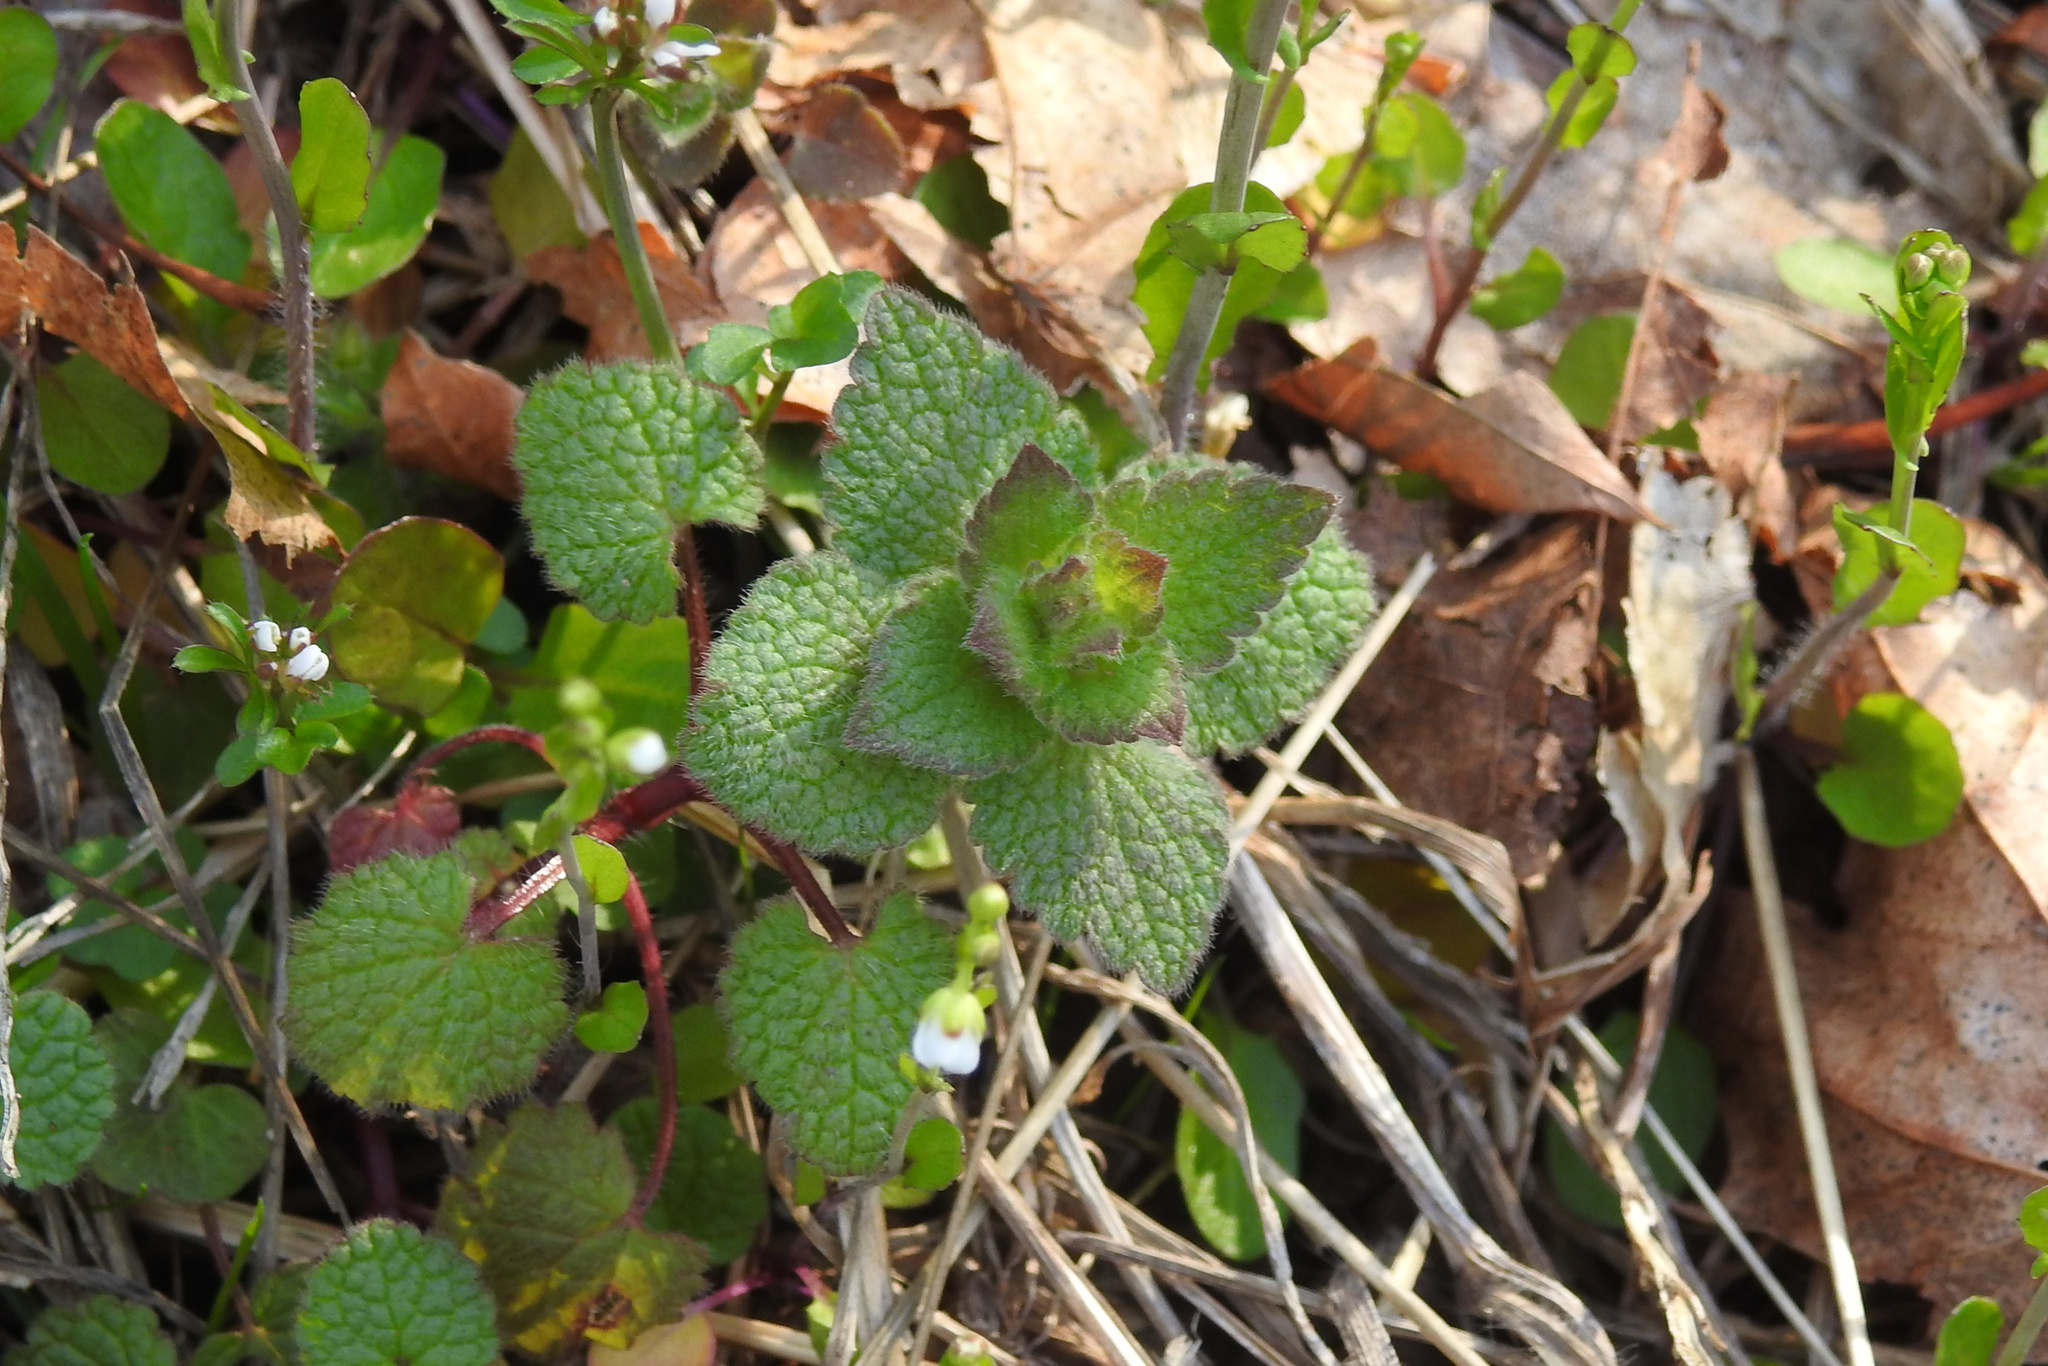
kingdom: Plantae
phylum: Tracheophyta
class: Magnoliopsida
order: Lamiales
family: Lamiaceae
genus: Lamium
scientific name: Lamium purpureum
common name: Red dead-nettle
